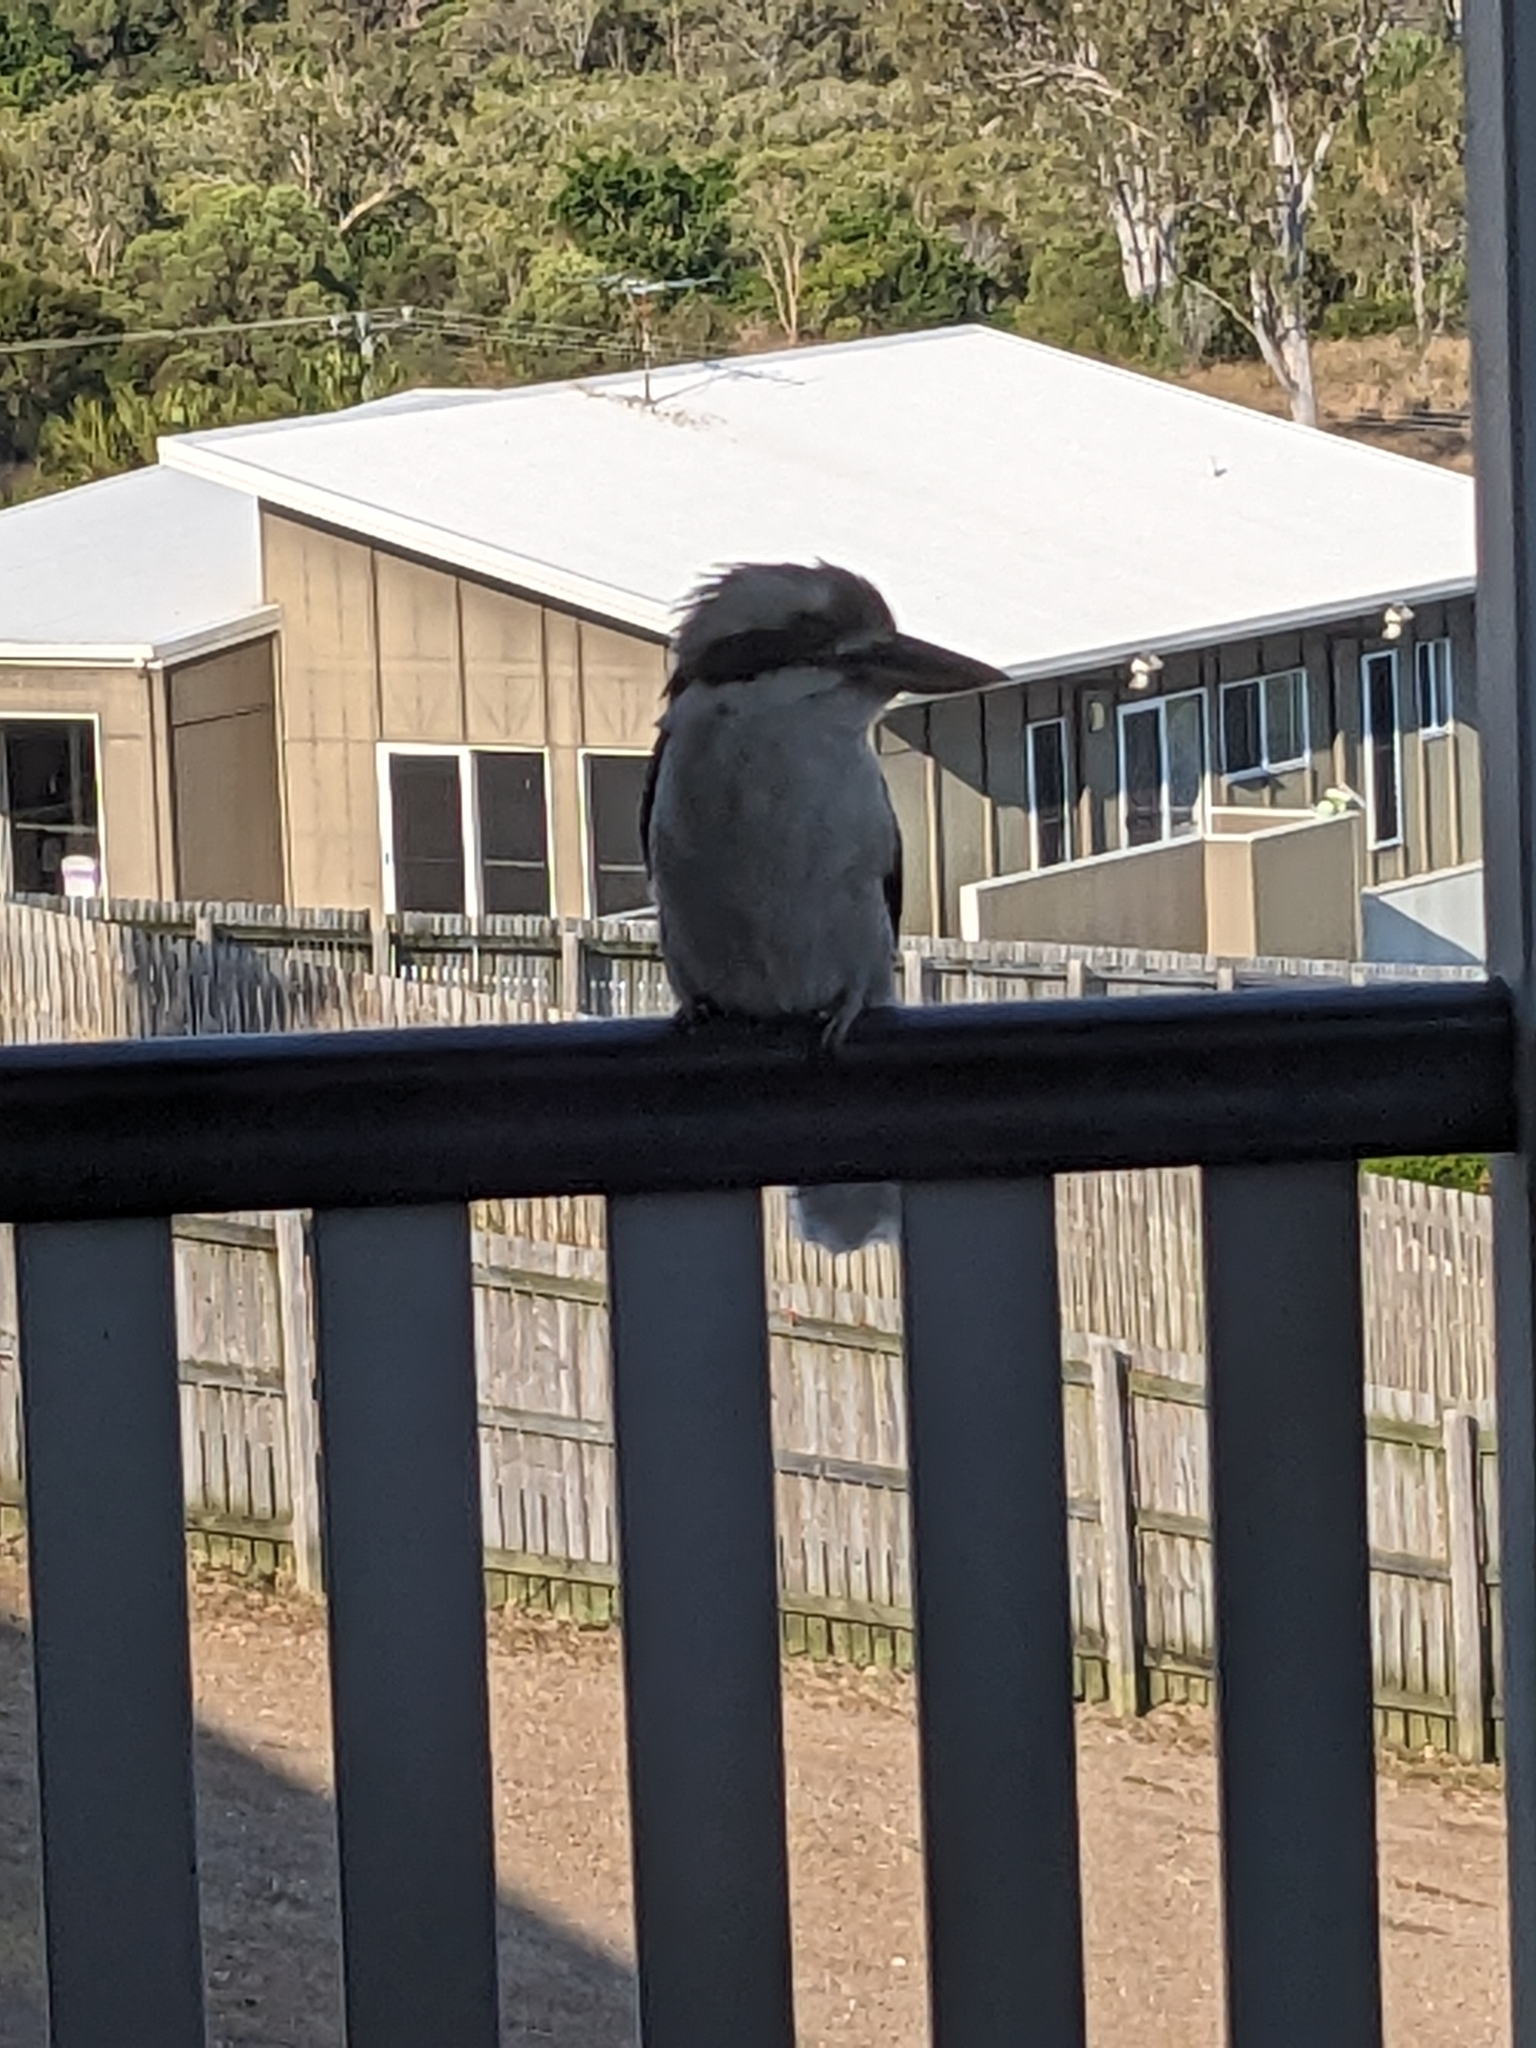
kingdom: Animalia
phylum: Chordata
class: Aves
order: Coraciiformes
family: Alcedinidae
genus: Dacelo
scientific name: Dacelo novaeguineae
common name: Laughing kookaburra
